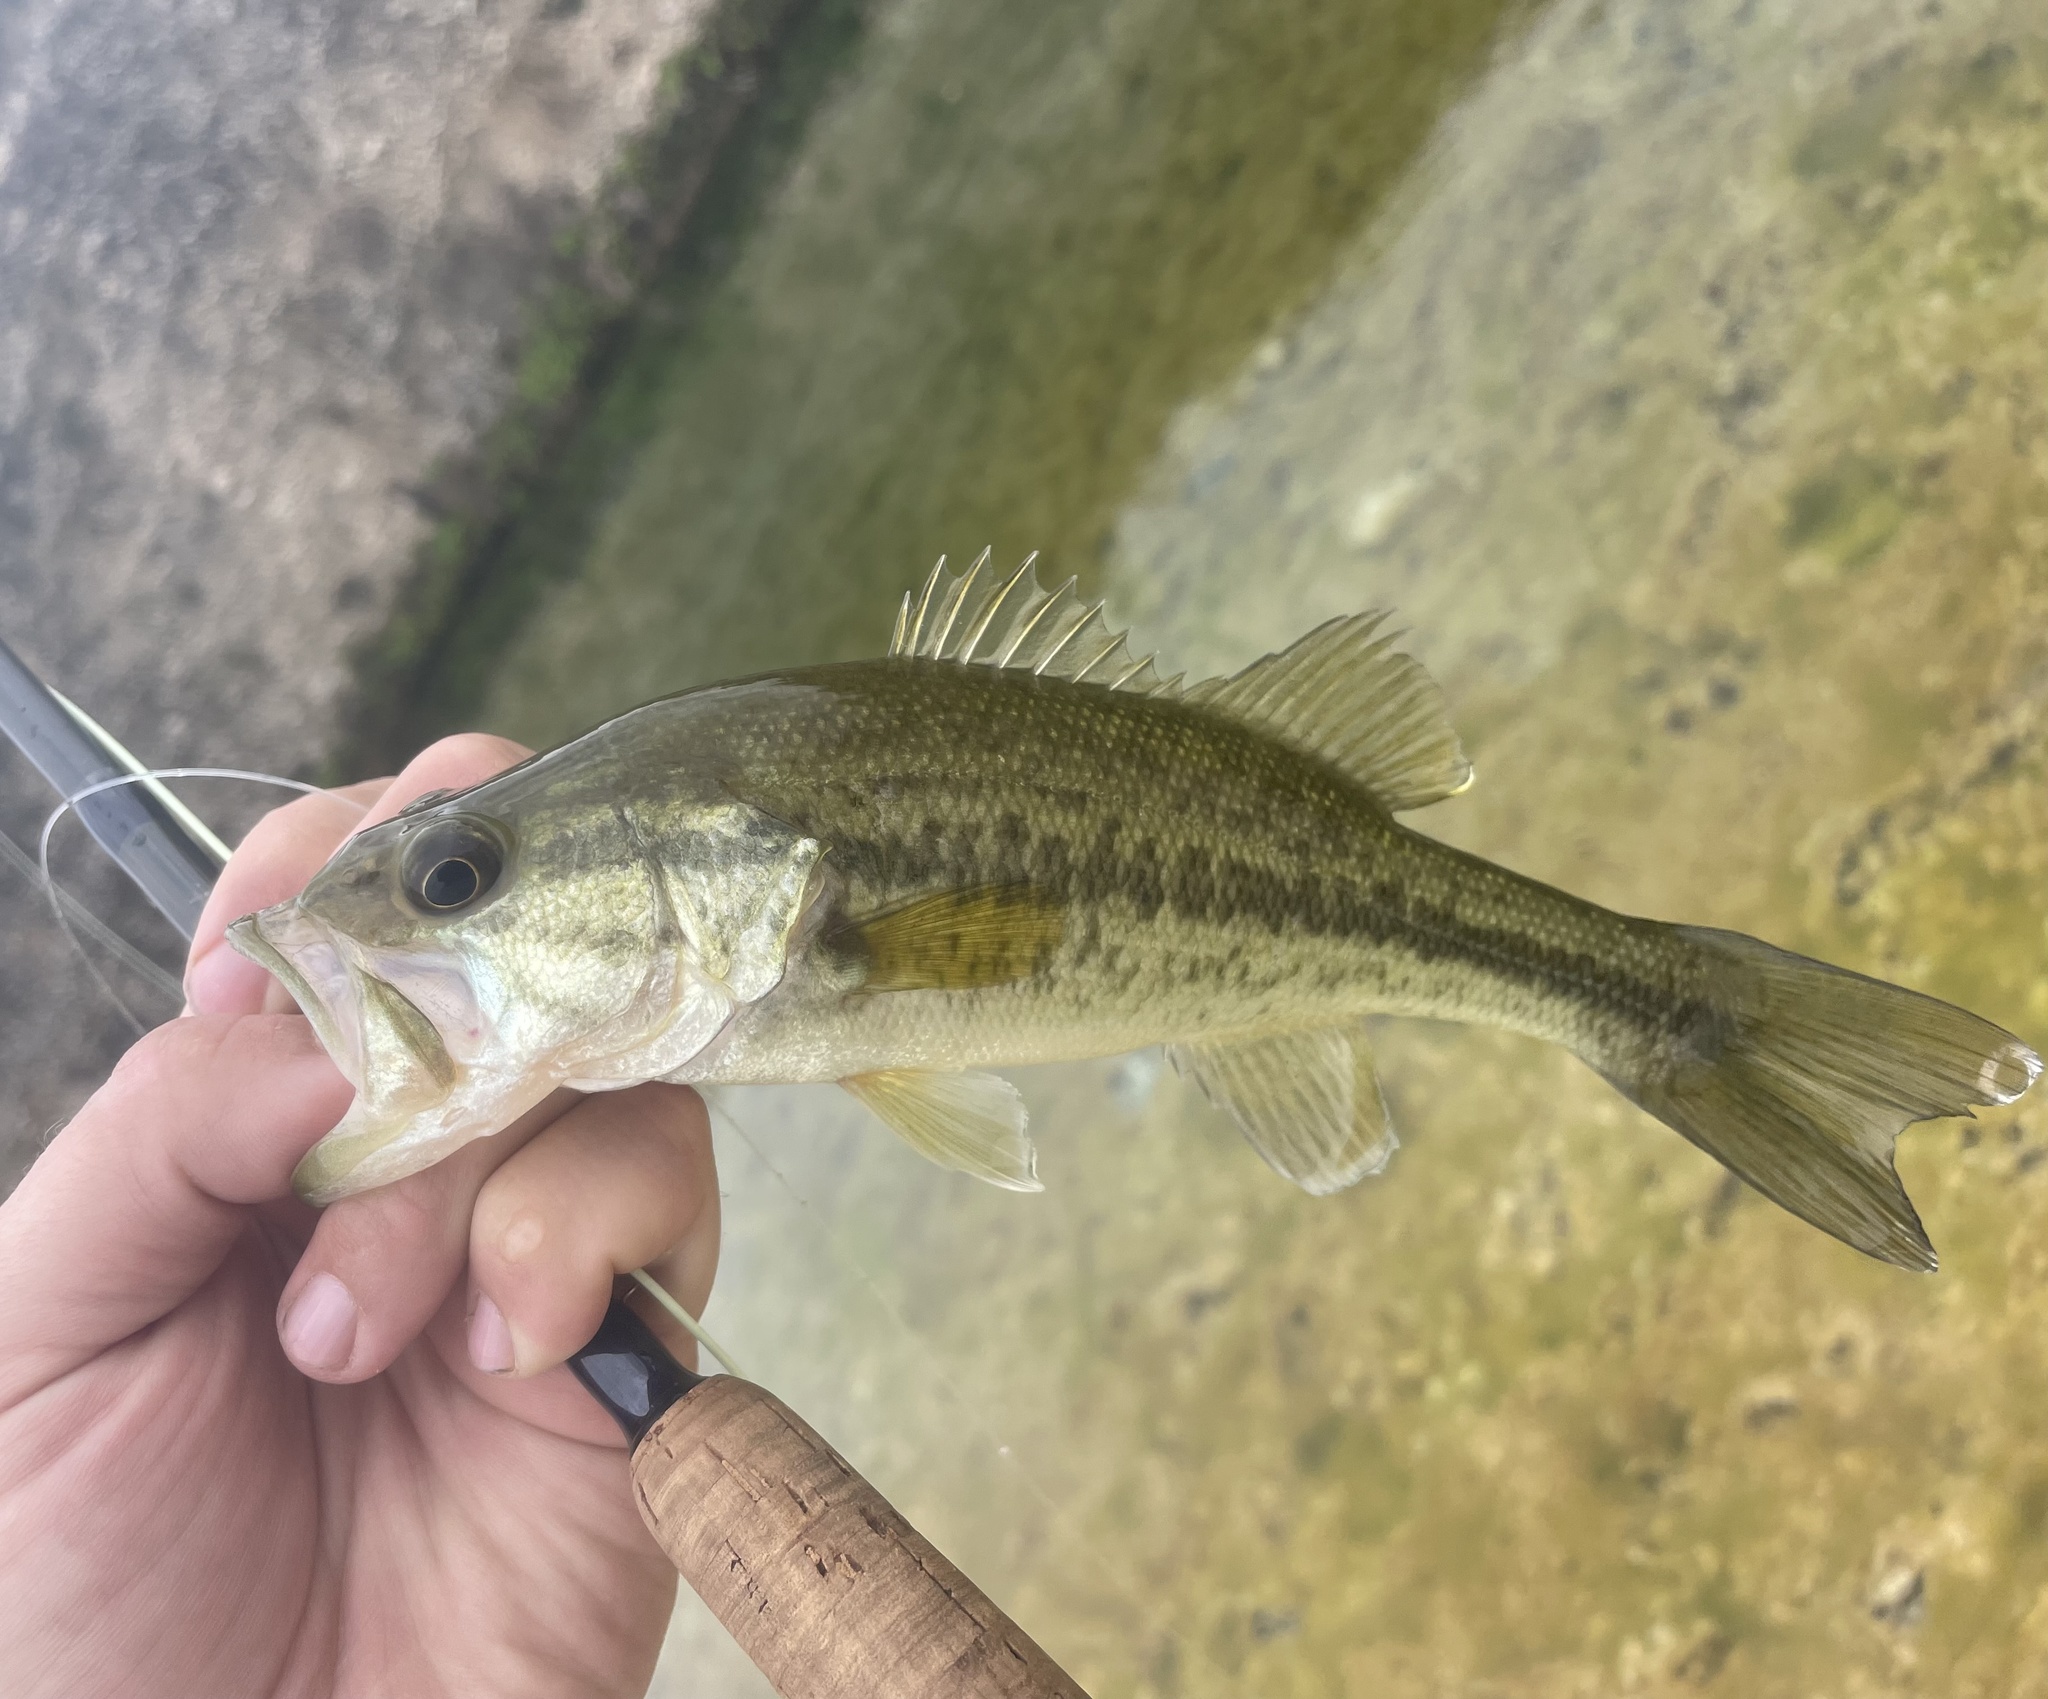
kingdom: Animalia
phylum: Chordata
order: Perciformes
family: Centrarchidae
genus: Micropterus
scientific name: Micropterus
